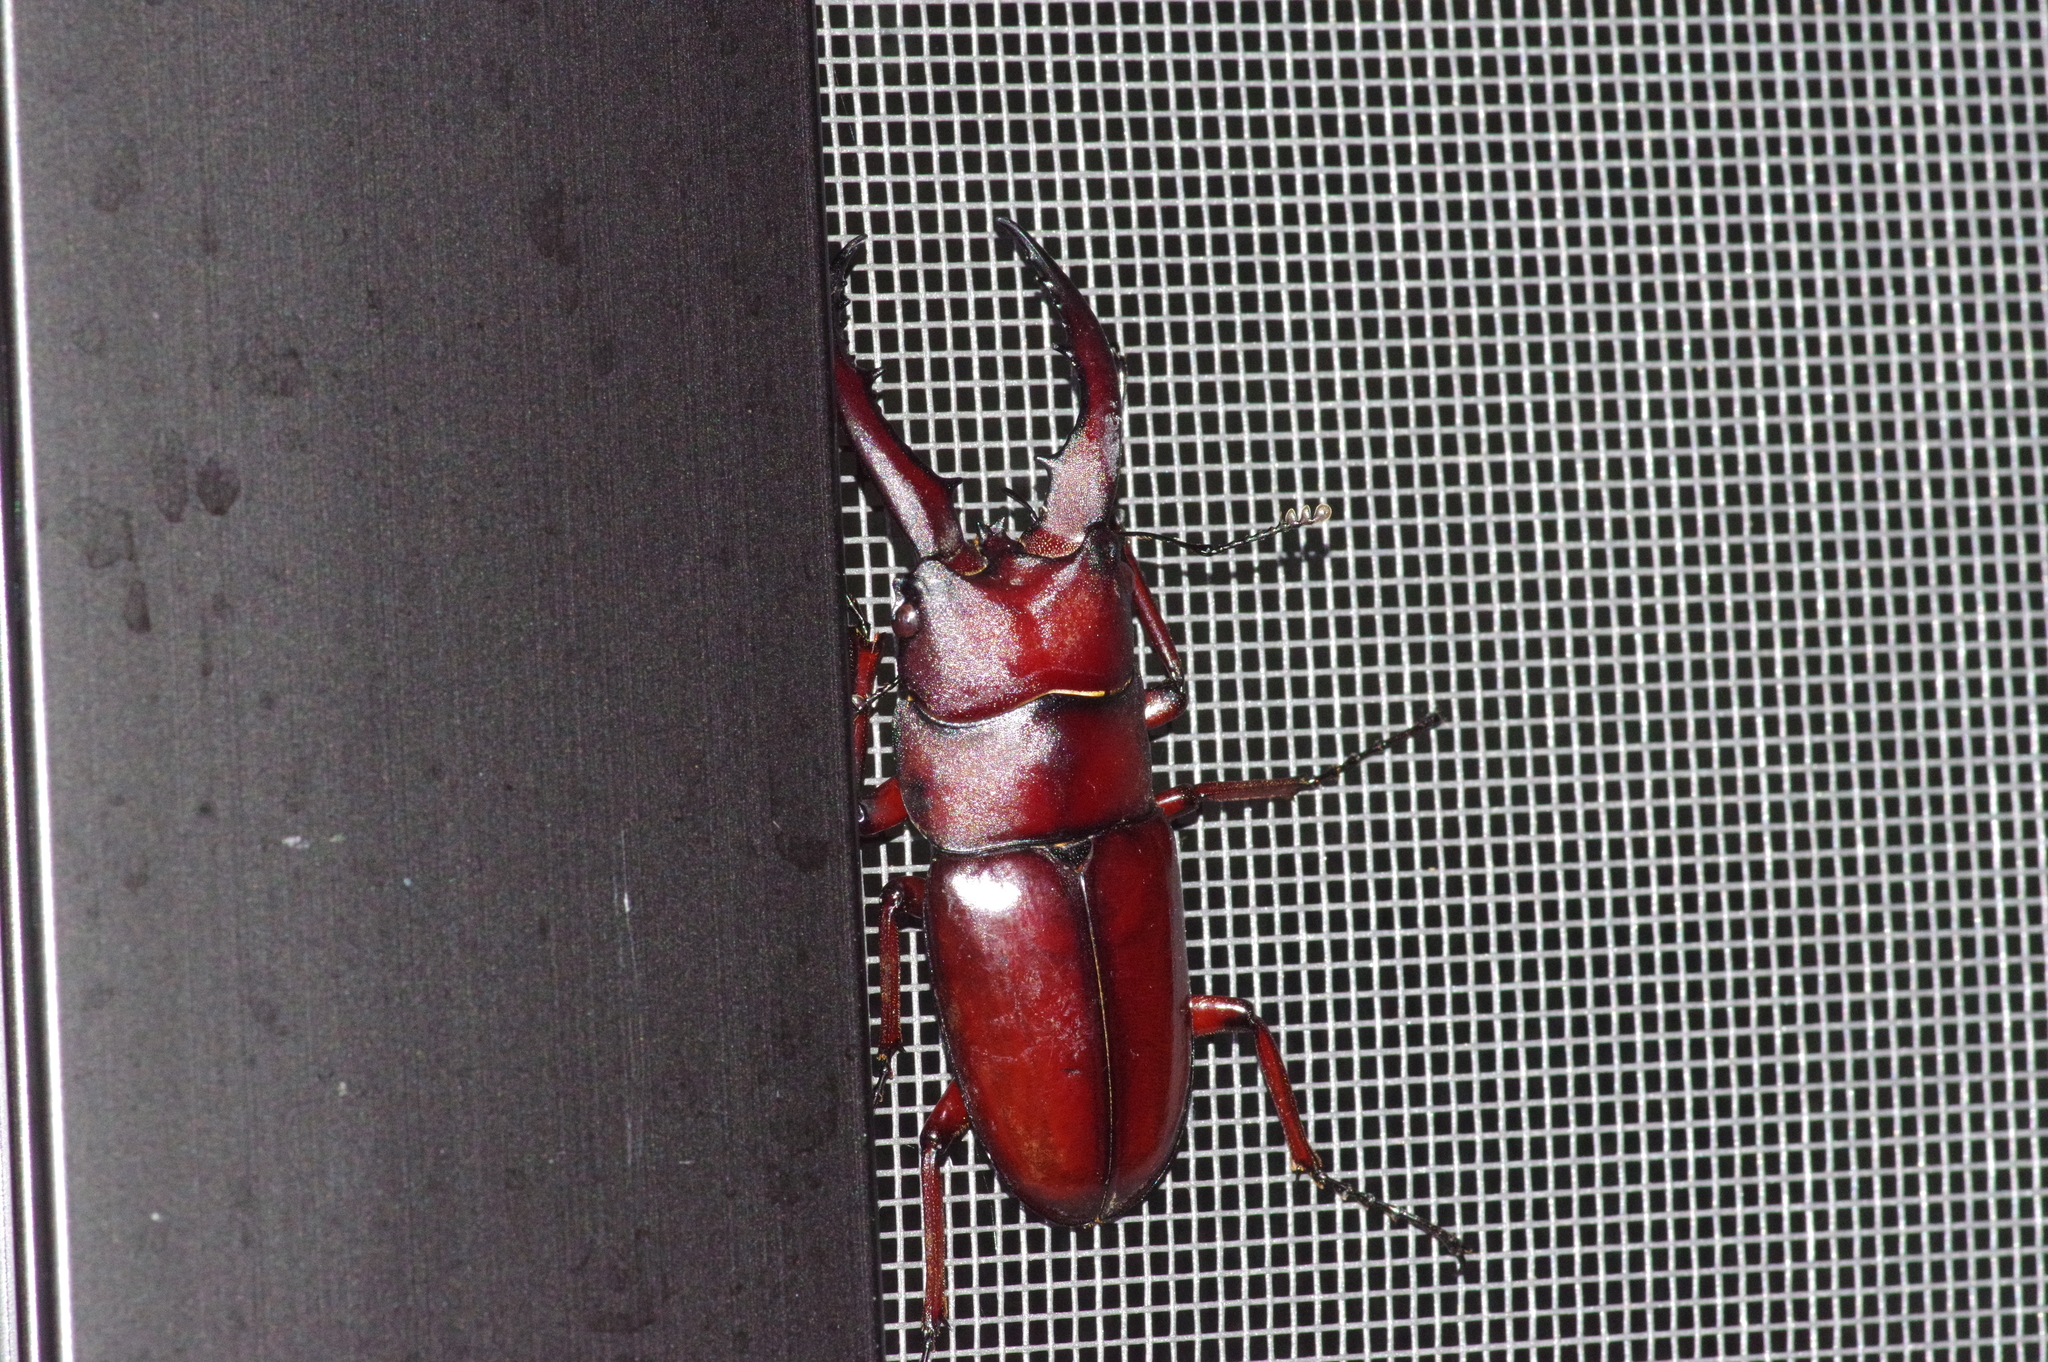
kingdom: Animalia
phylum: Arthropoda
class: Insecta
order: Coleoptera
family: Lucanidae
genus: Prosopocoilus
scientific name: Prosopocoilus dissimilis
